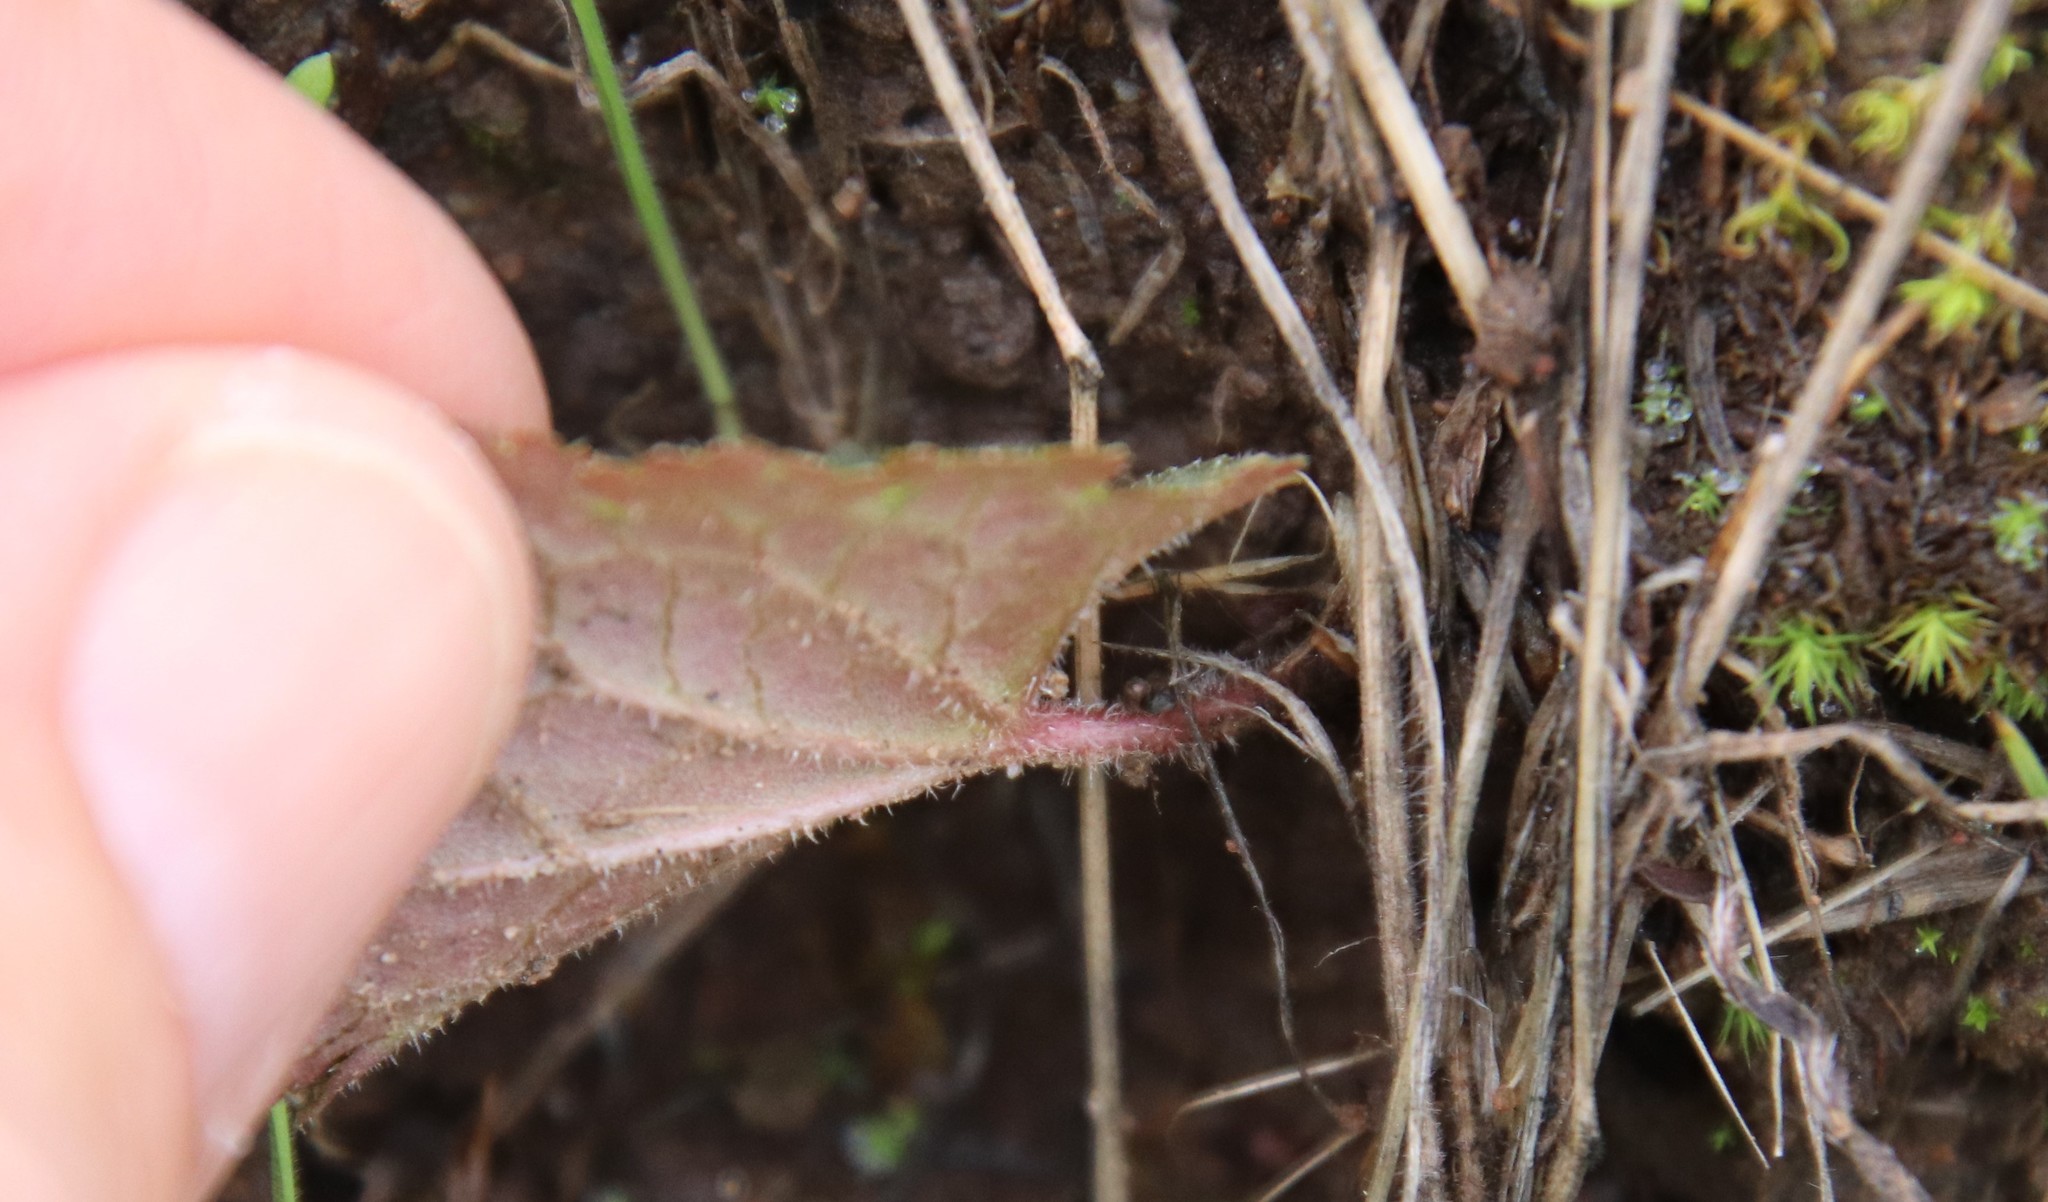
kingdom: Plantae
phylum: Tracheophyta
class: Magnoliopsida
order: Saxifragales
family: Saxifragaceae
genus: Jepsonia
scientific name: Jepsonia parryi
